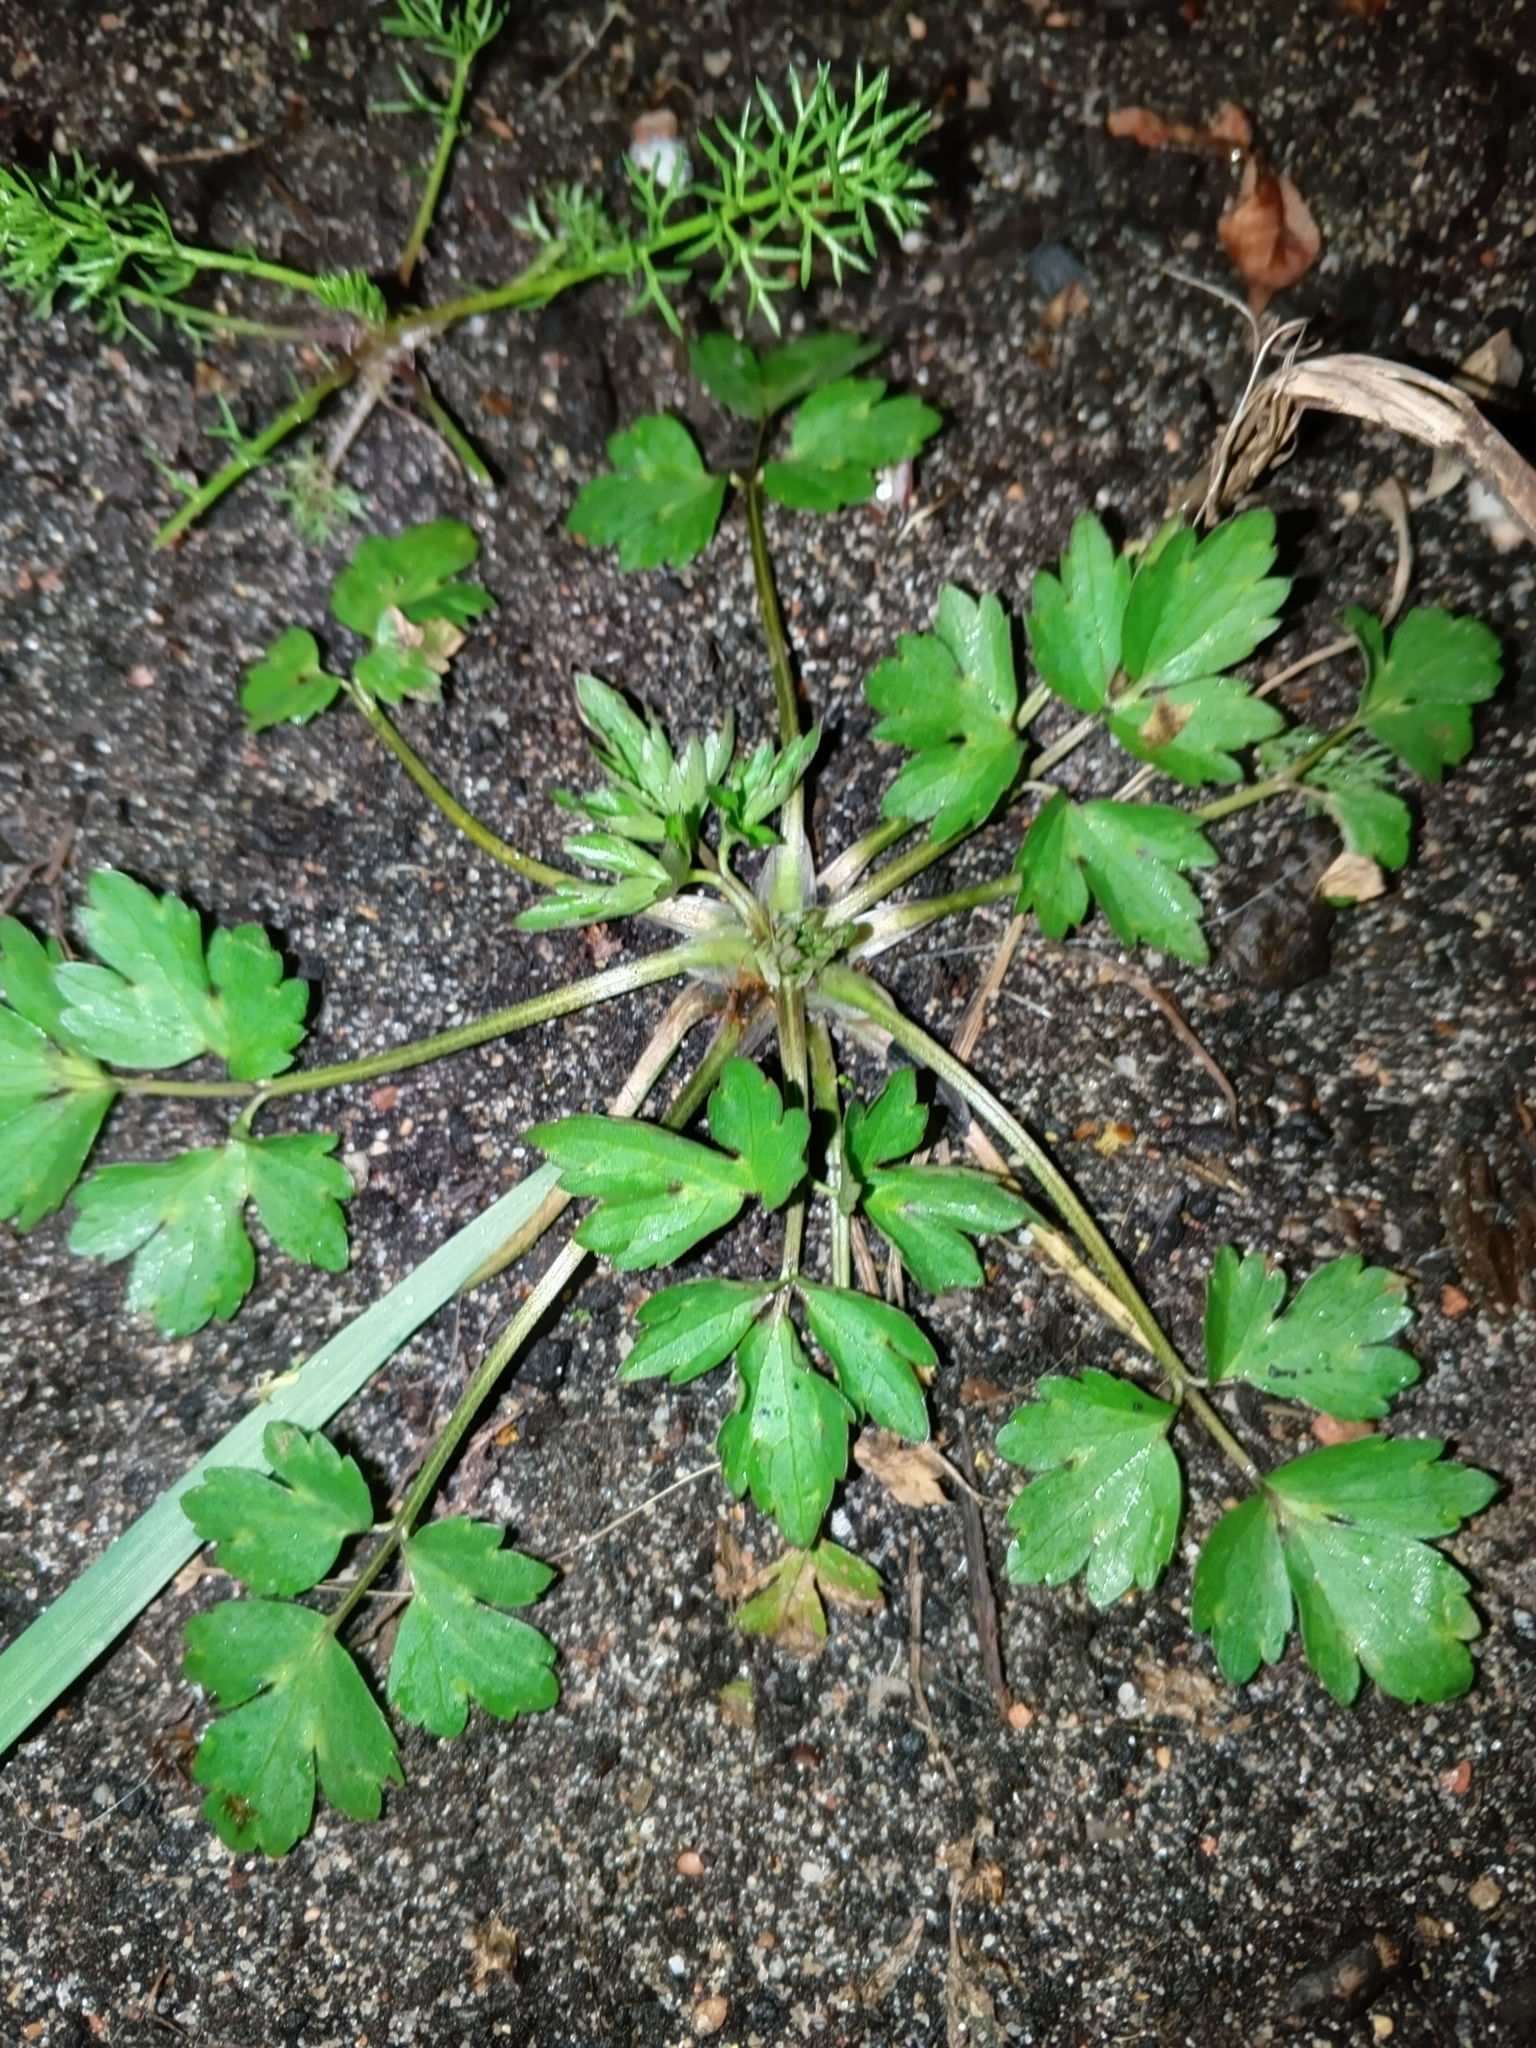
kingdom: Plantae
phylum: Tracheophyta
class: Magnoliopsida
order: Ranunculales
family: Ranunculaceae
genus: Ranunculus
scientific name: Ranunculus repens
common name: Creeping buttercup
